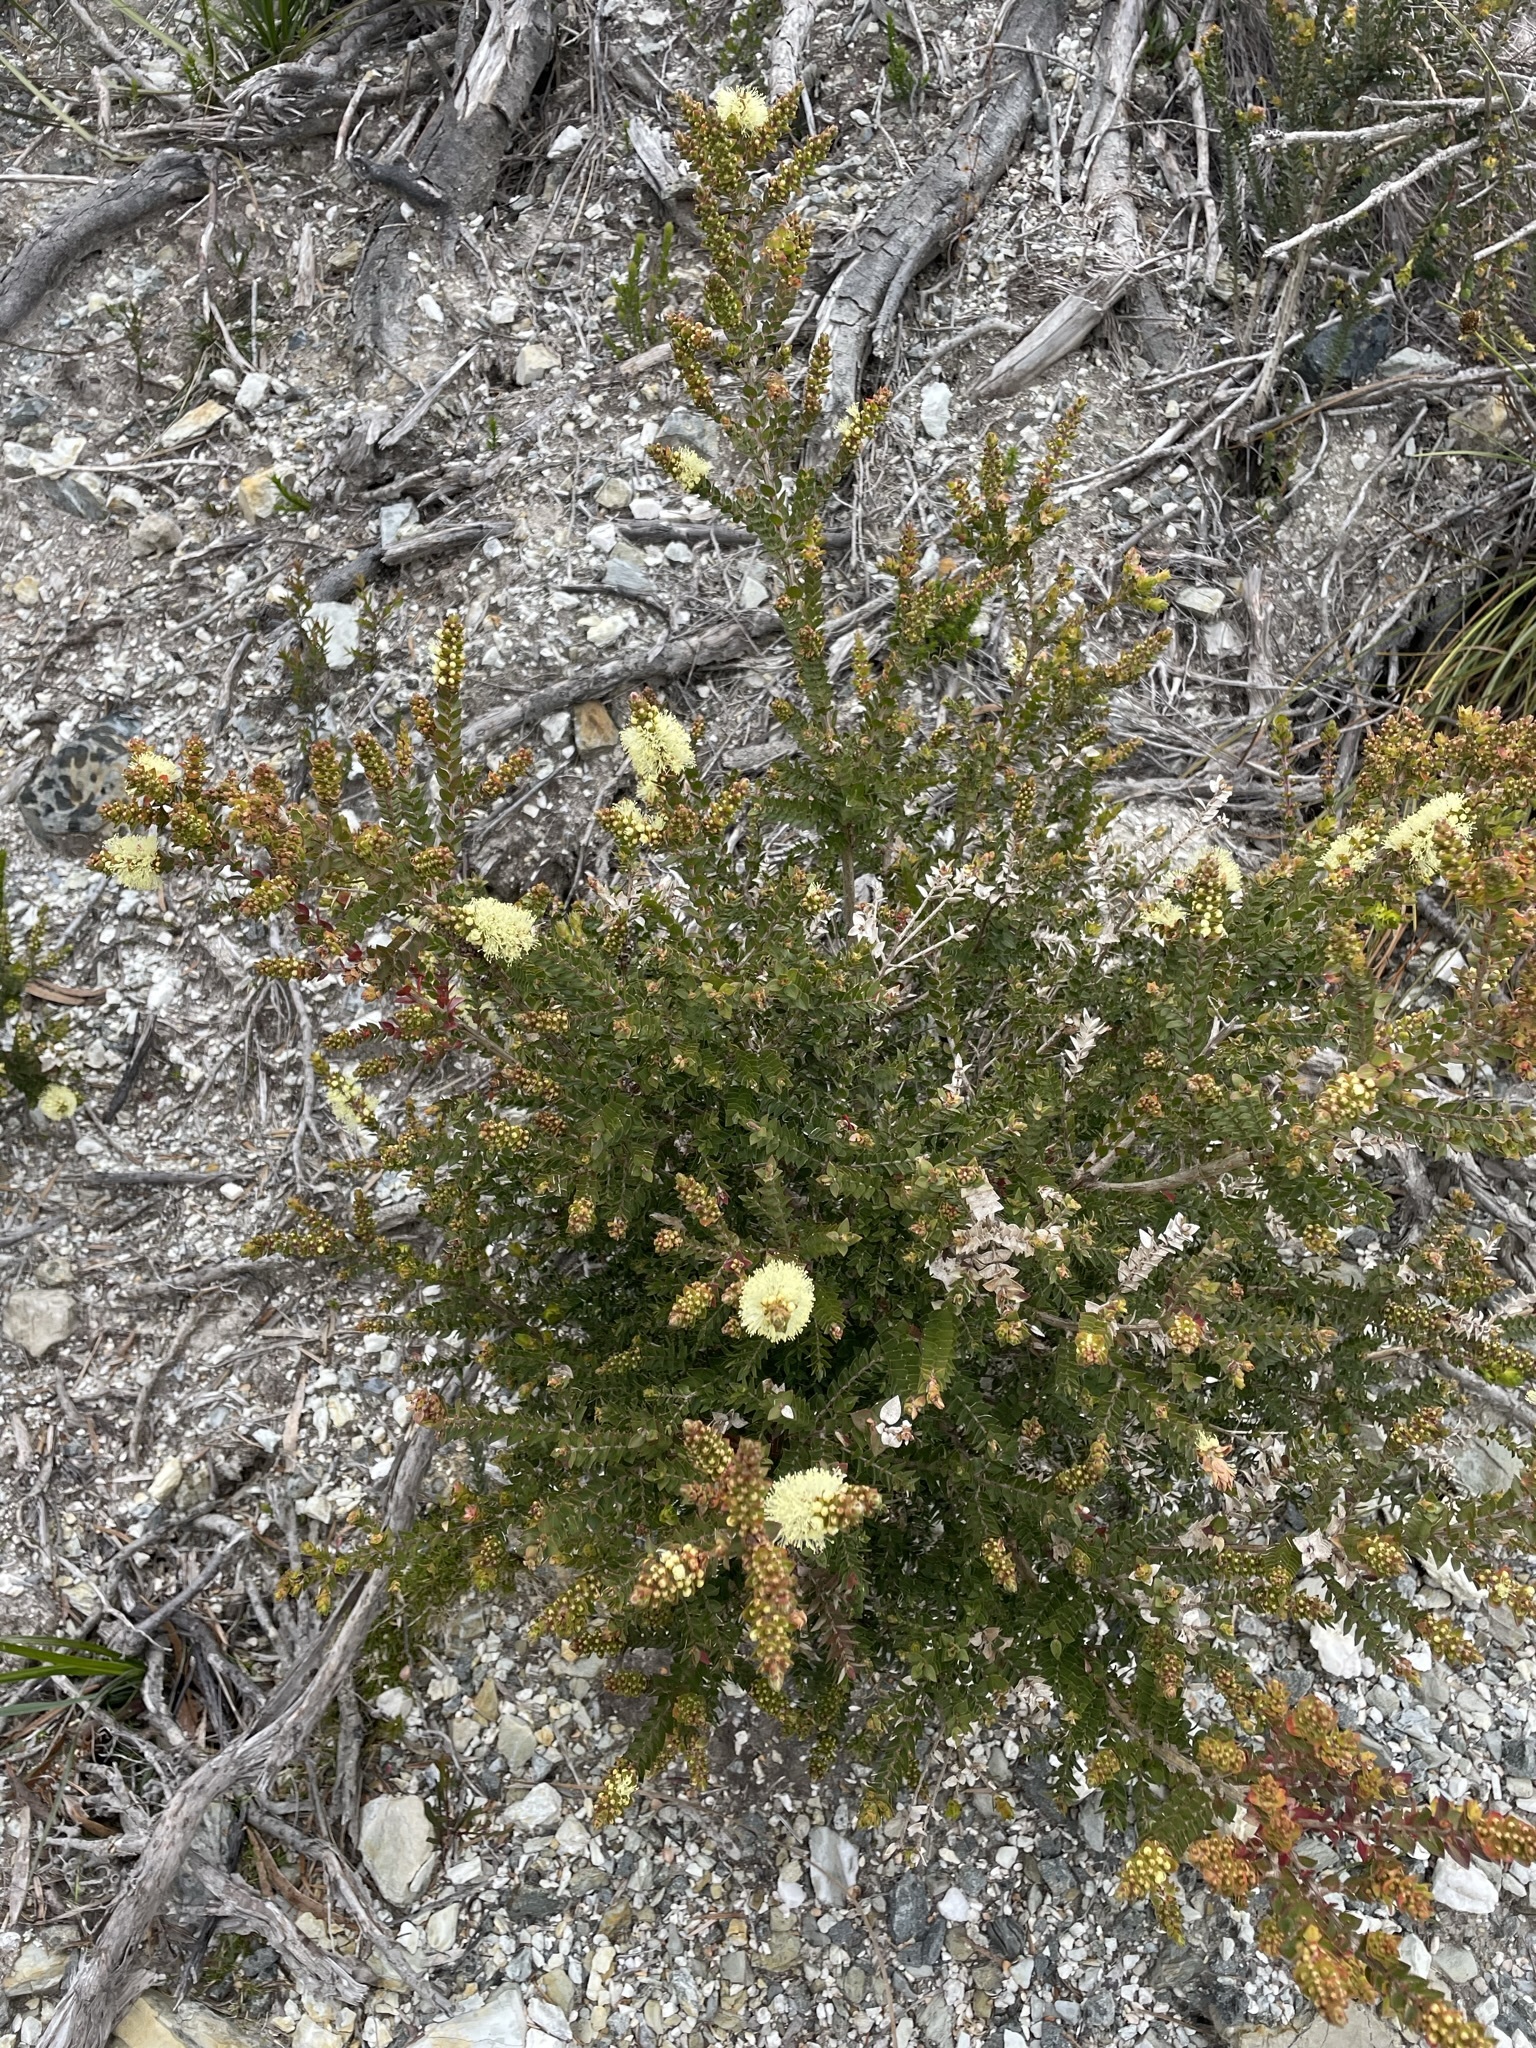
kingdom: Plantae
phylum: Tracheophyta
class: Magnoliopsida
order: Myrtales
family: Myrtaceae
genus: Melaleuca
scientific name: Melaleuca squarrosa
